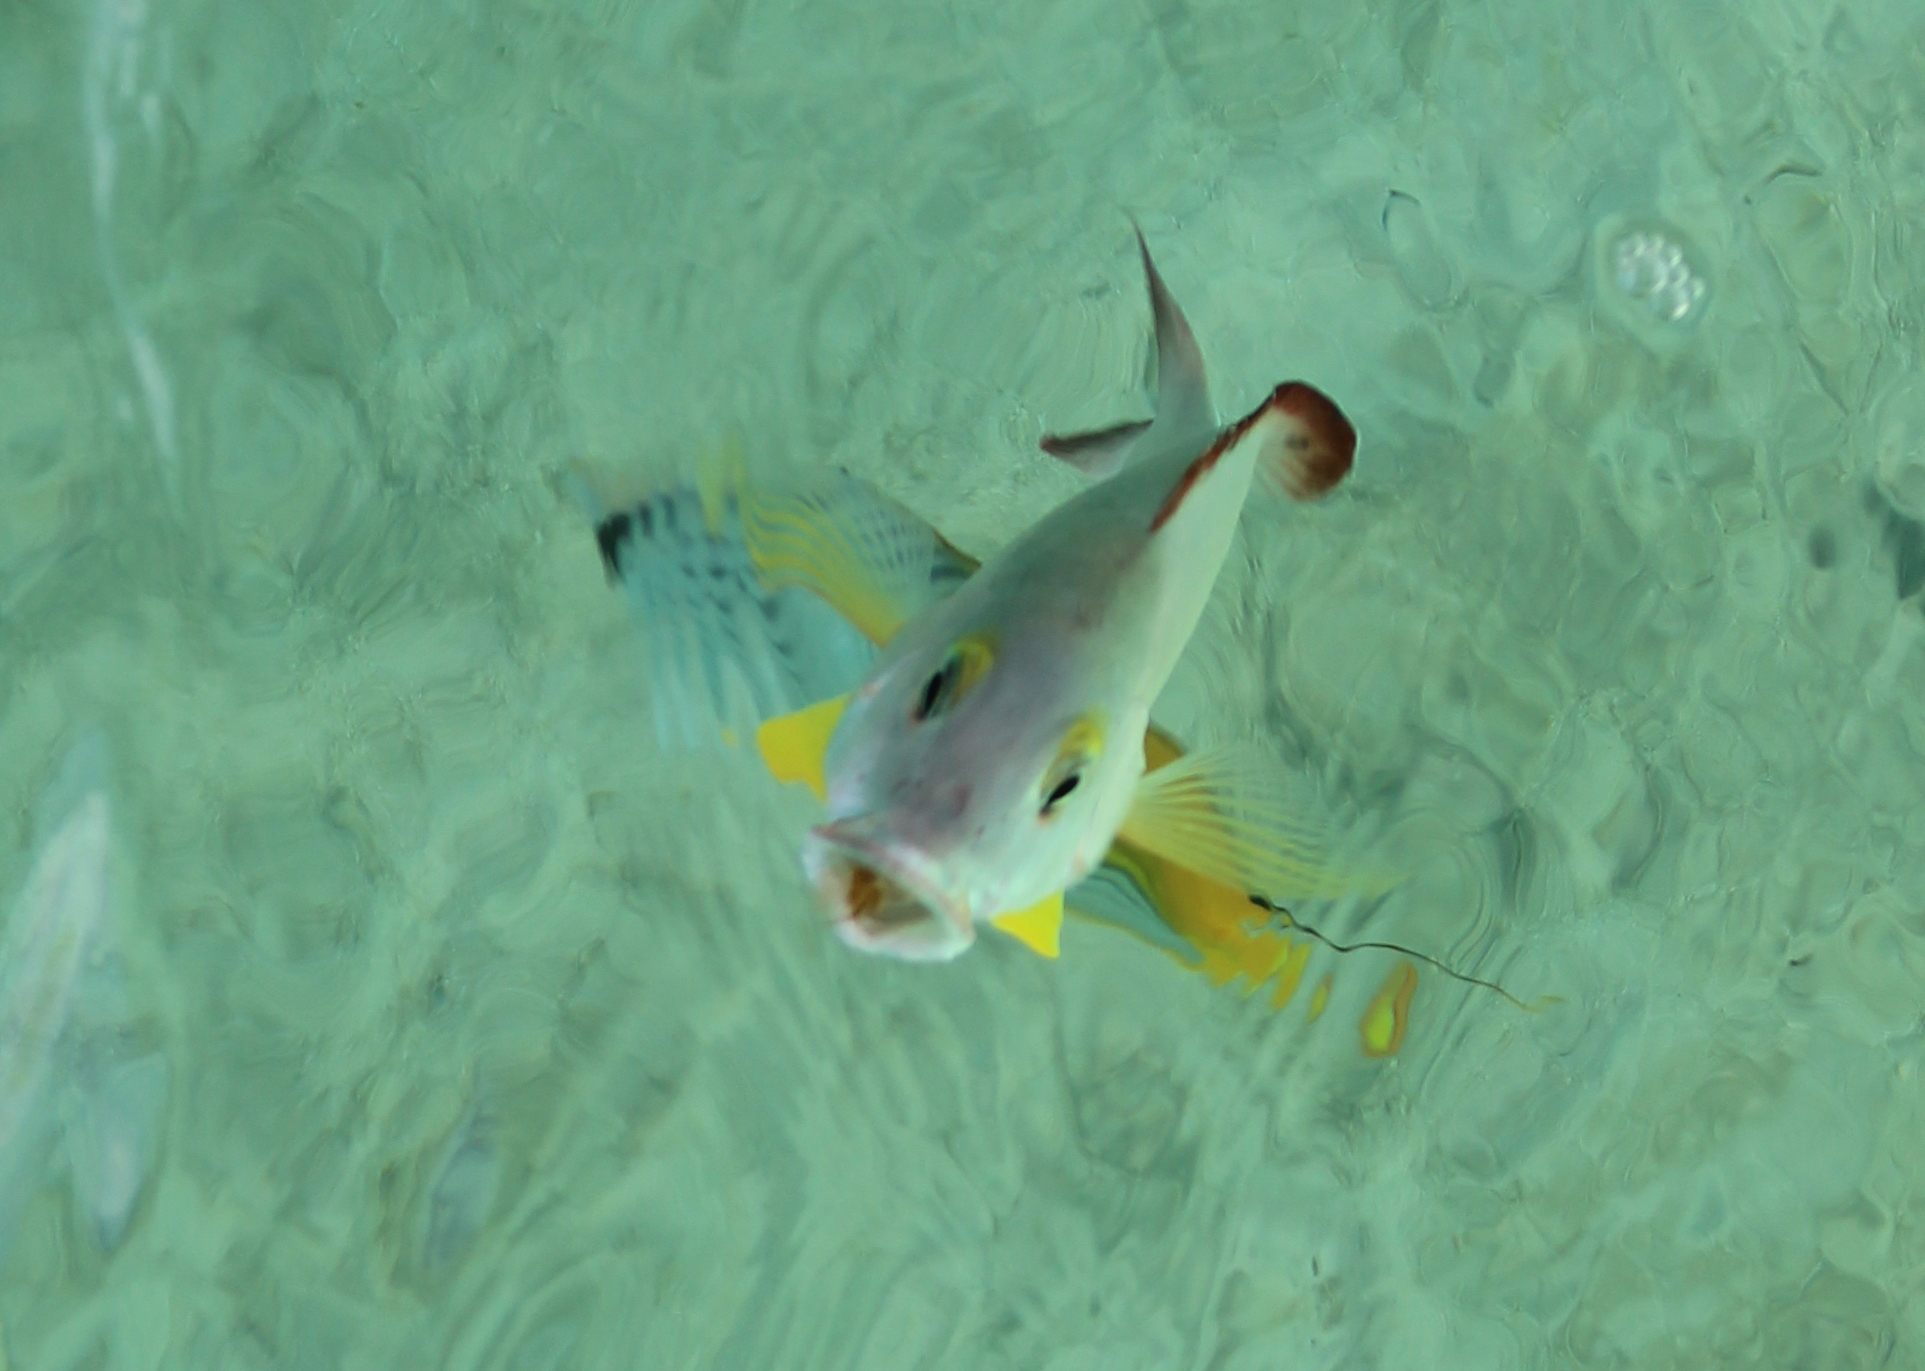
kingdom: Animalia
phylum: Chordata
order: Perciformes
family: Lutjanidae
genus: Lutjanus
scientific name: Lutjanus fulvus
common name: Blacktail snapper
